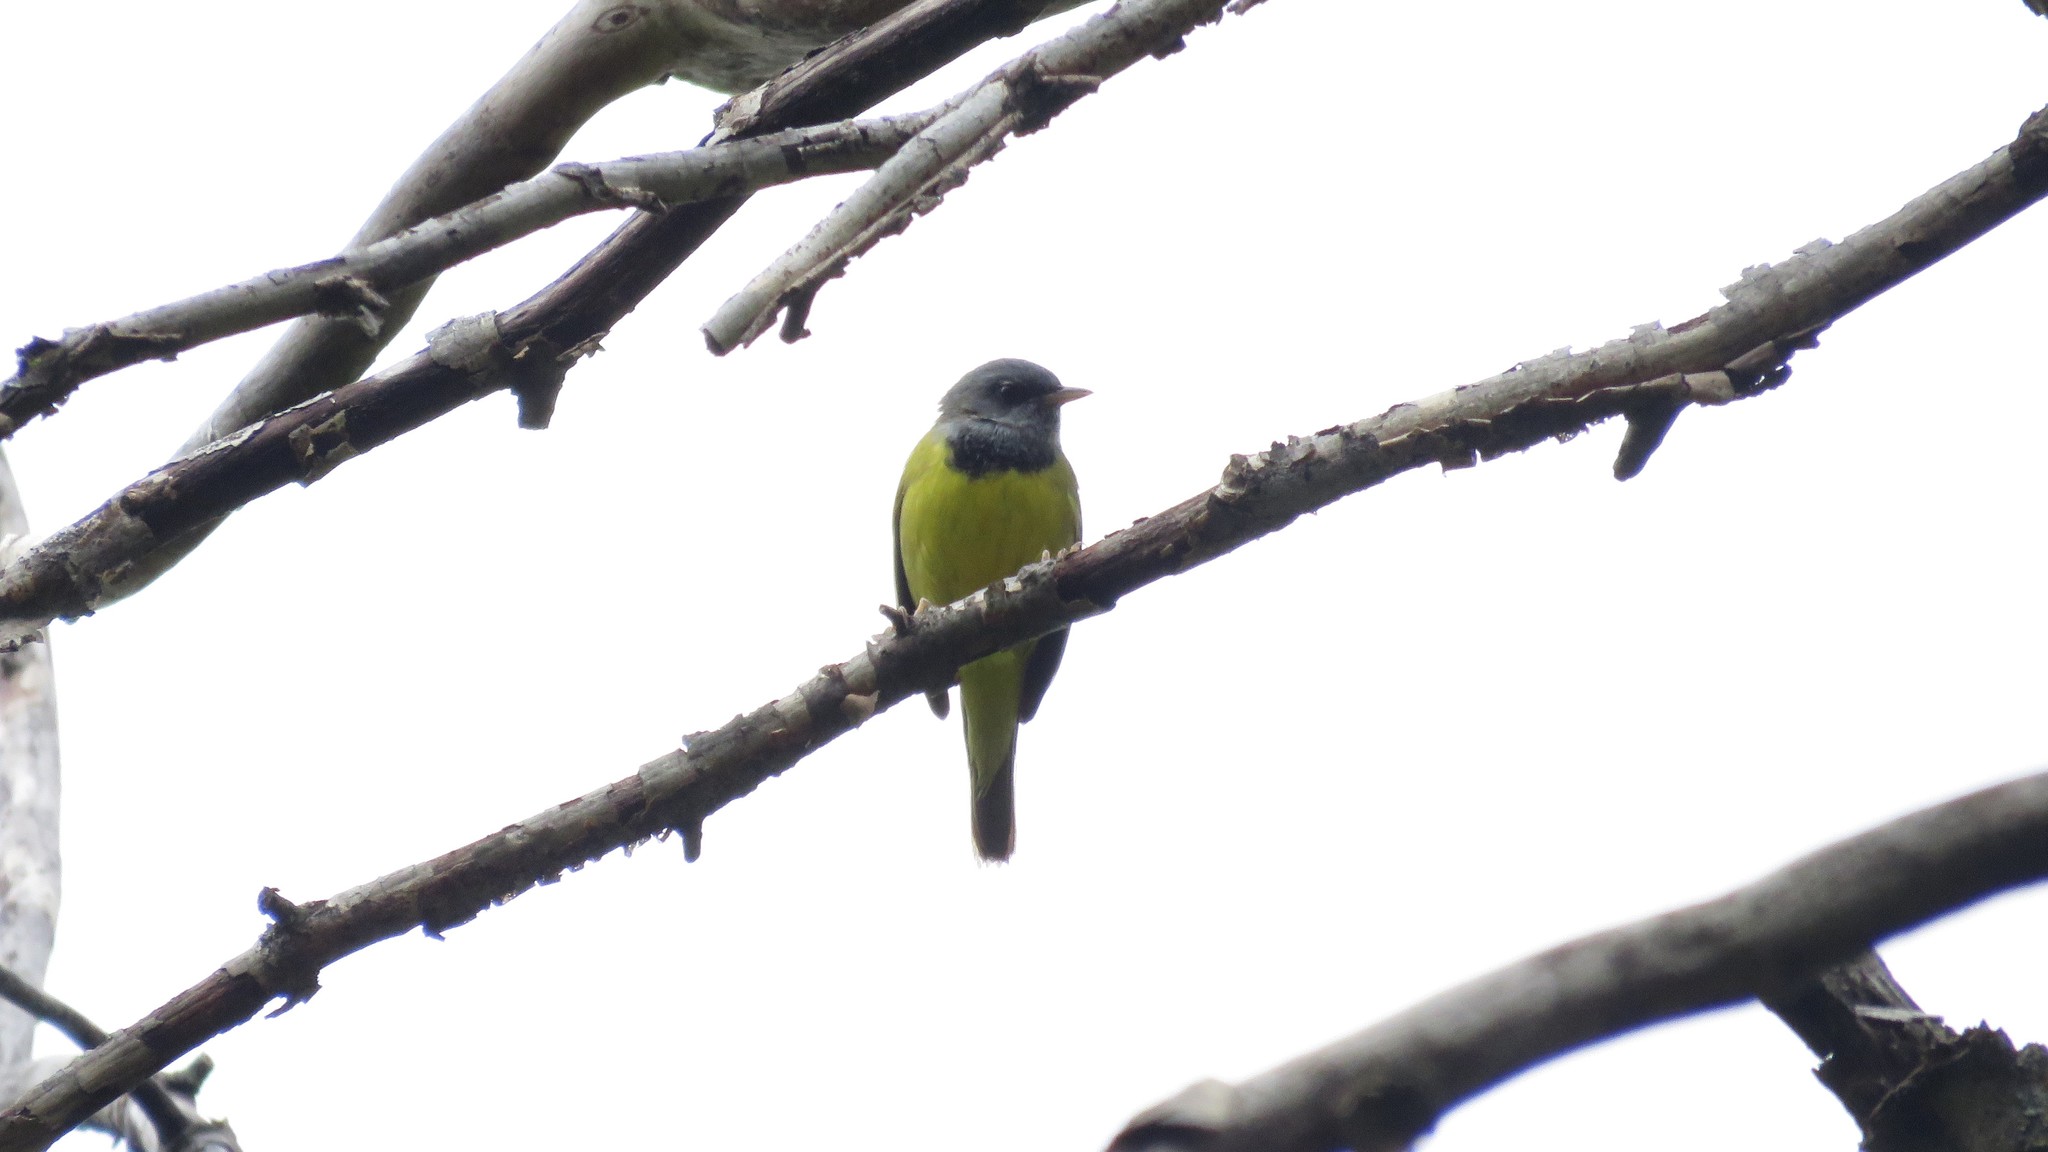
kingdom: Animalia
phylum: Chordata
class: Aves
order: Passeriformes
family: Parulidae
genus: Geothlypis
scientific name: Geothlypis philadelphia
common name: Mourning warbler
